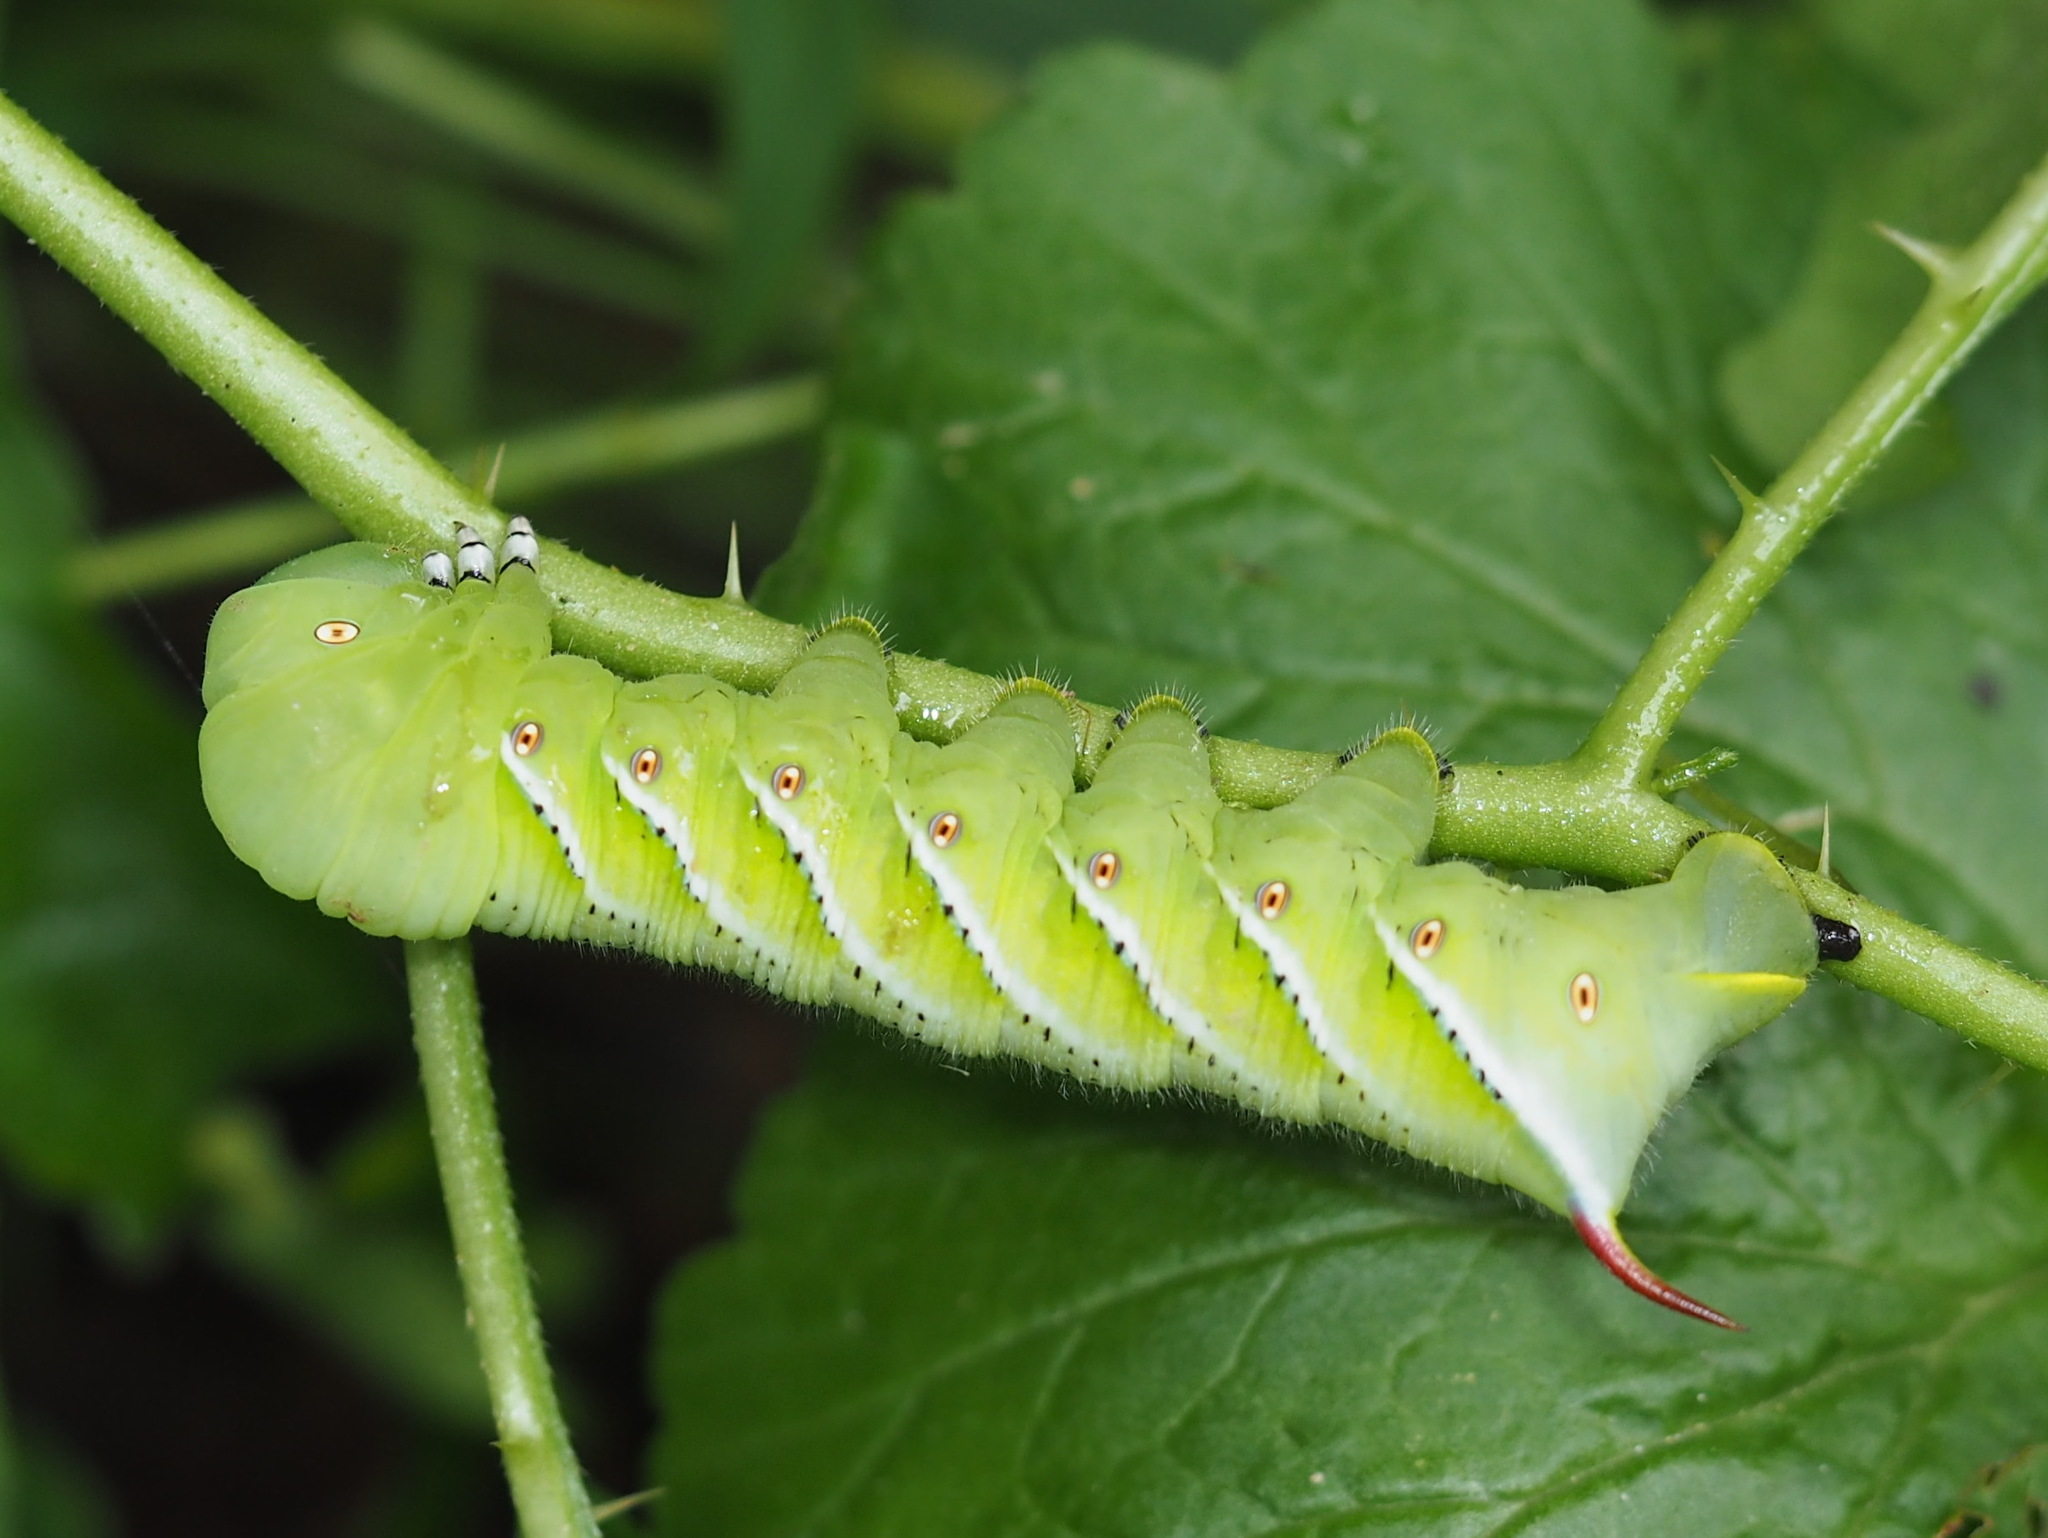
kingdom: Animalia
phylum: Arthropoda
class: Insecta
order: Lepidoptera
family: Sphingidae
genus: Manduca
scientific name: Manduca sexta
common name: Carolina sphinx
